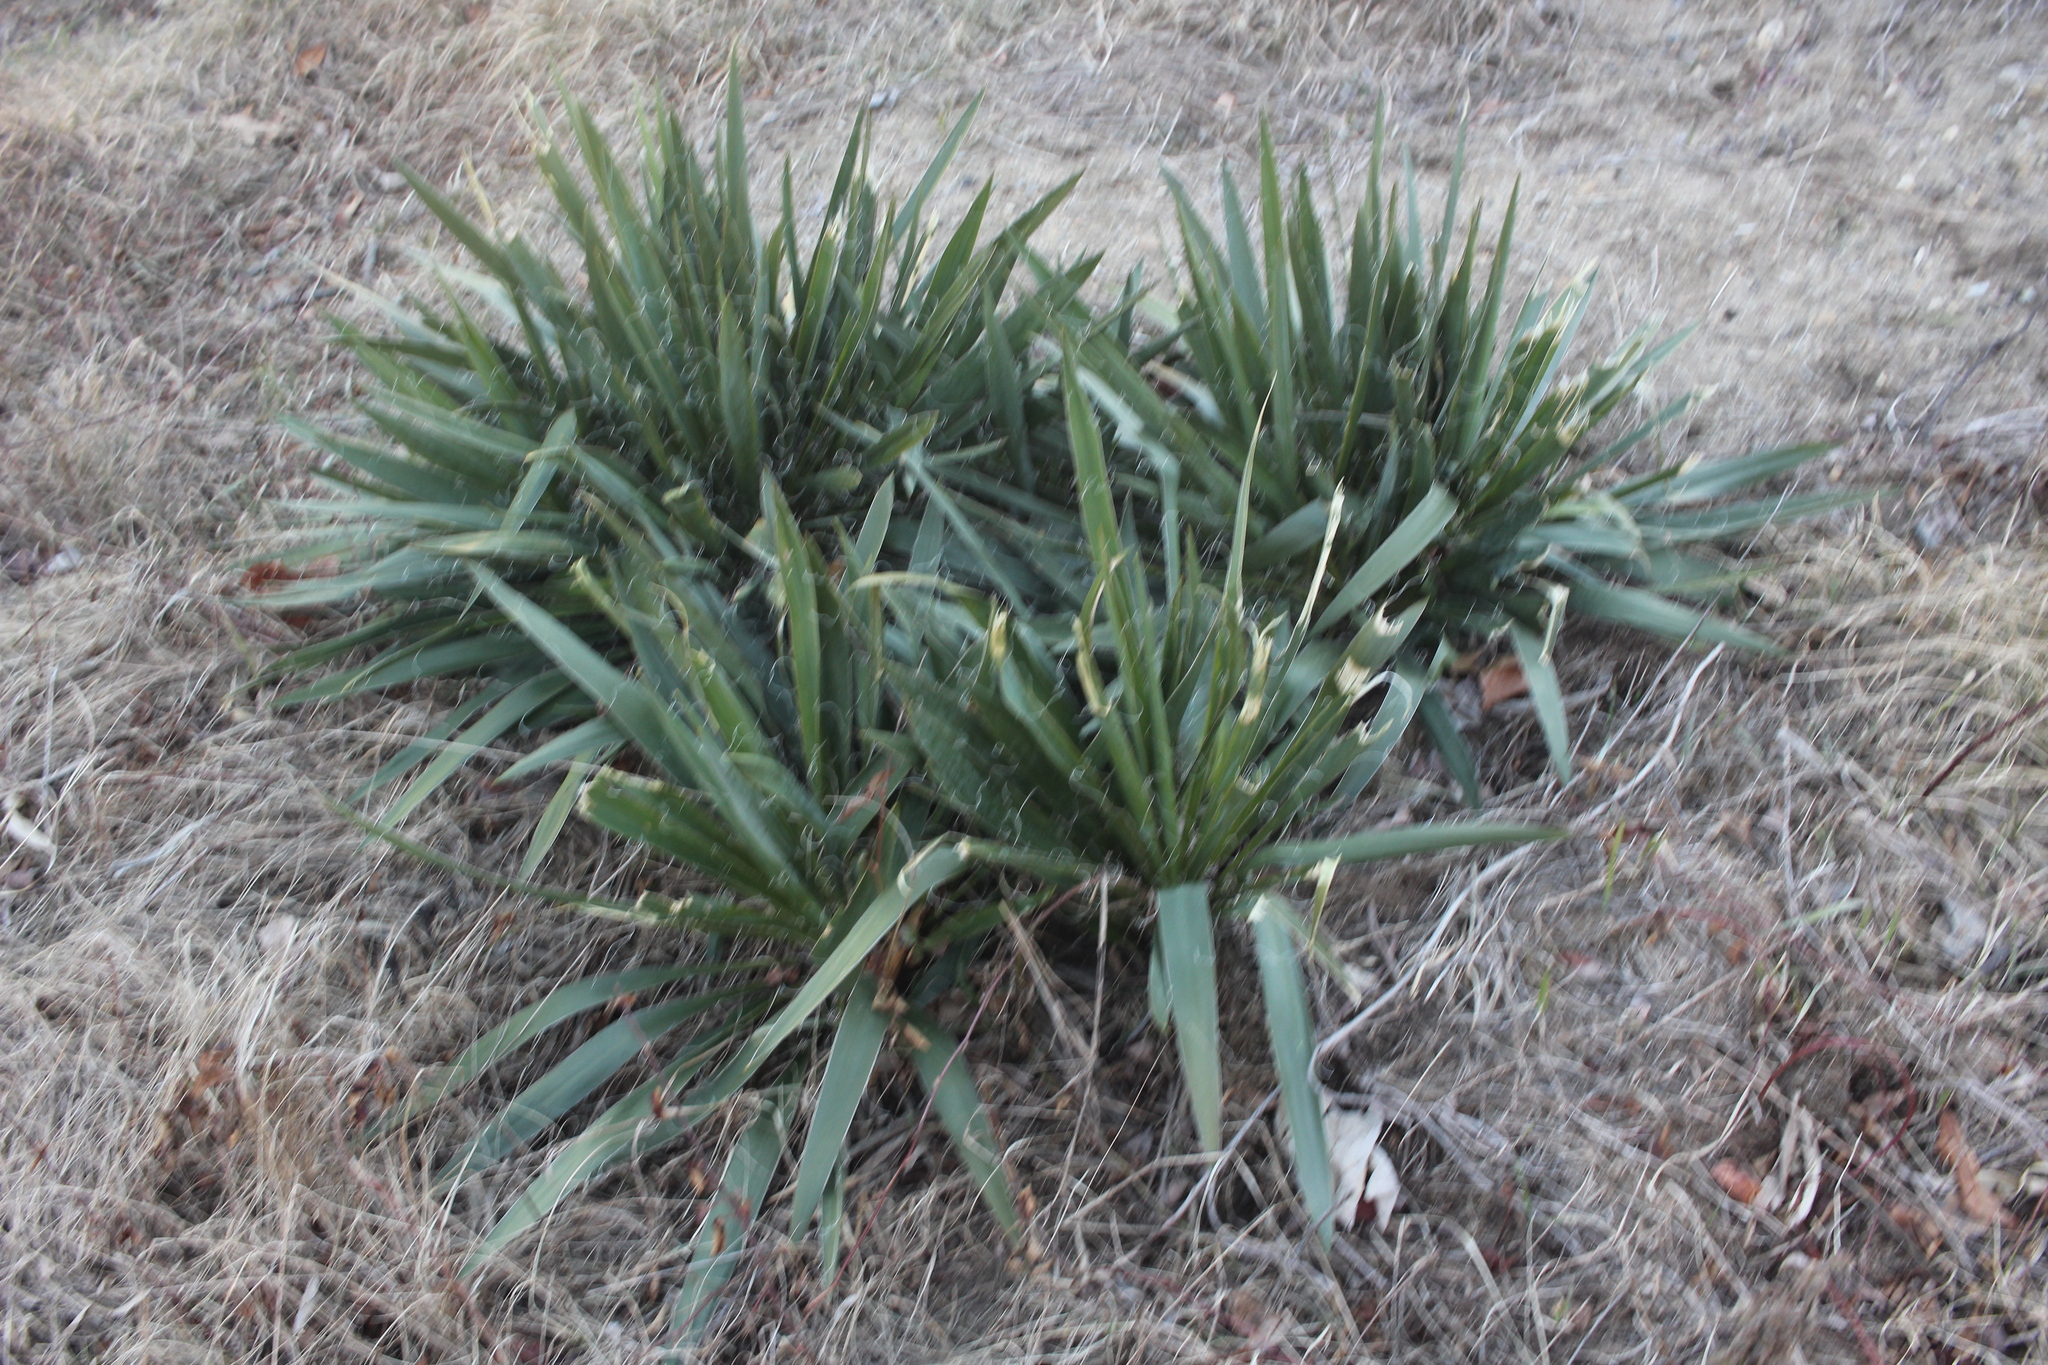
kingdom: Plantae
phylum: Tracheophyta
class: Liliopsida
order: Asparagales
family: Asparagaceae
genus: Yucca
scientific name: Yucca filamentosa
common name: Adam's-needle
